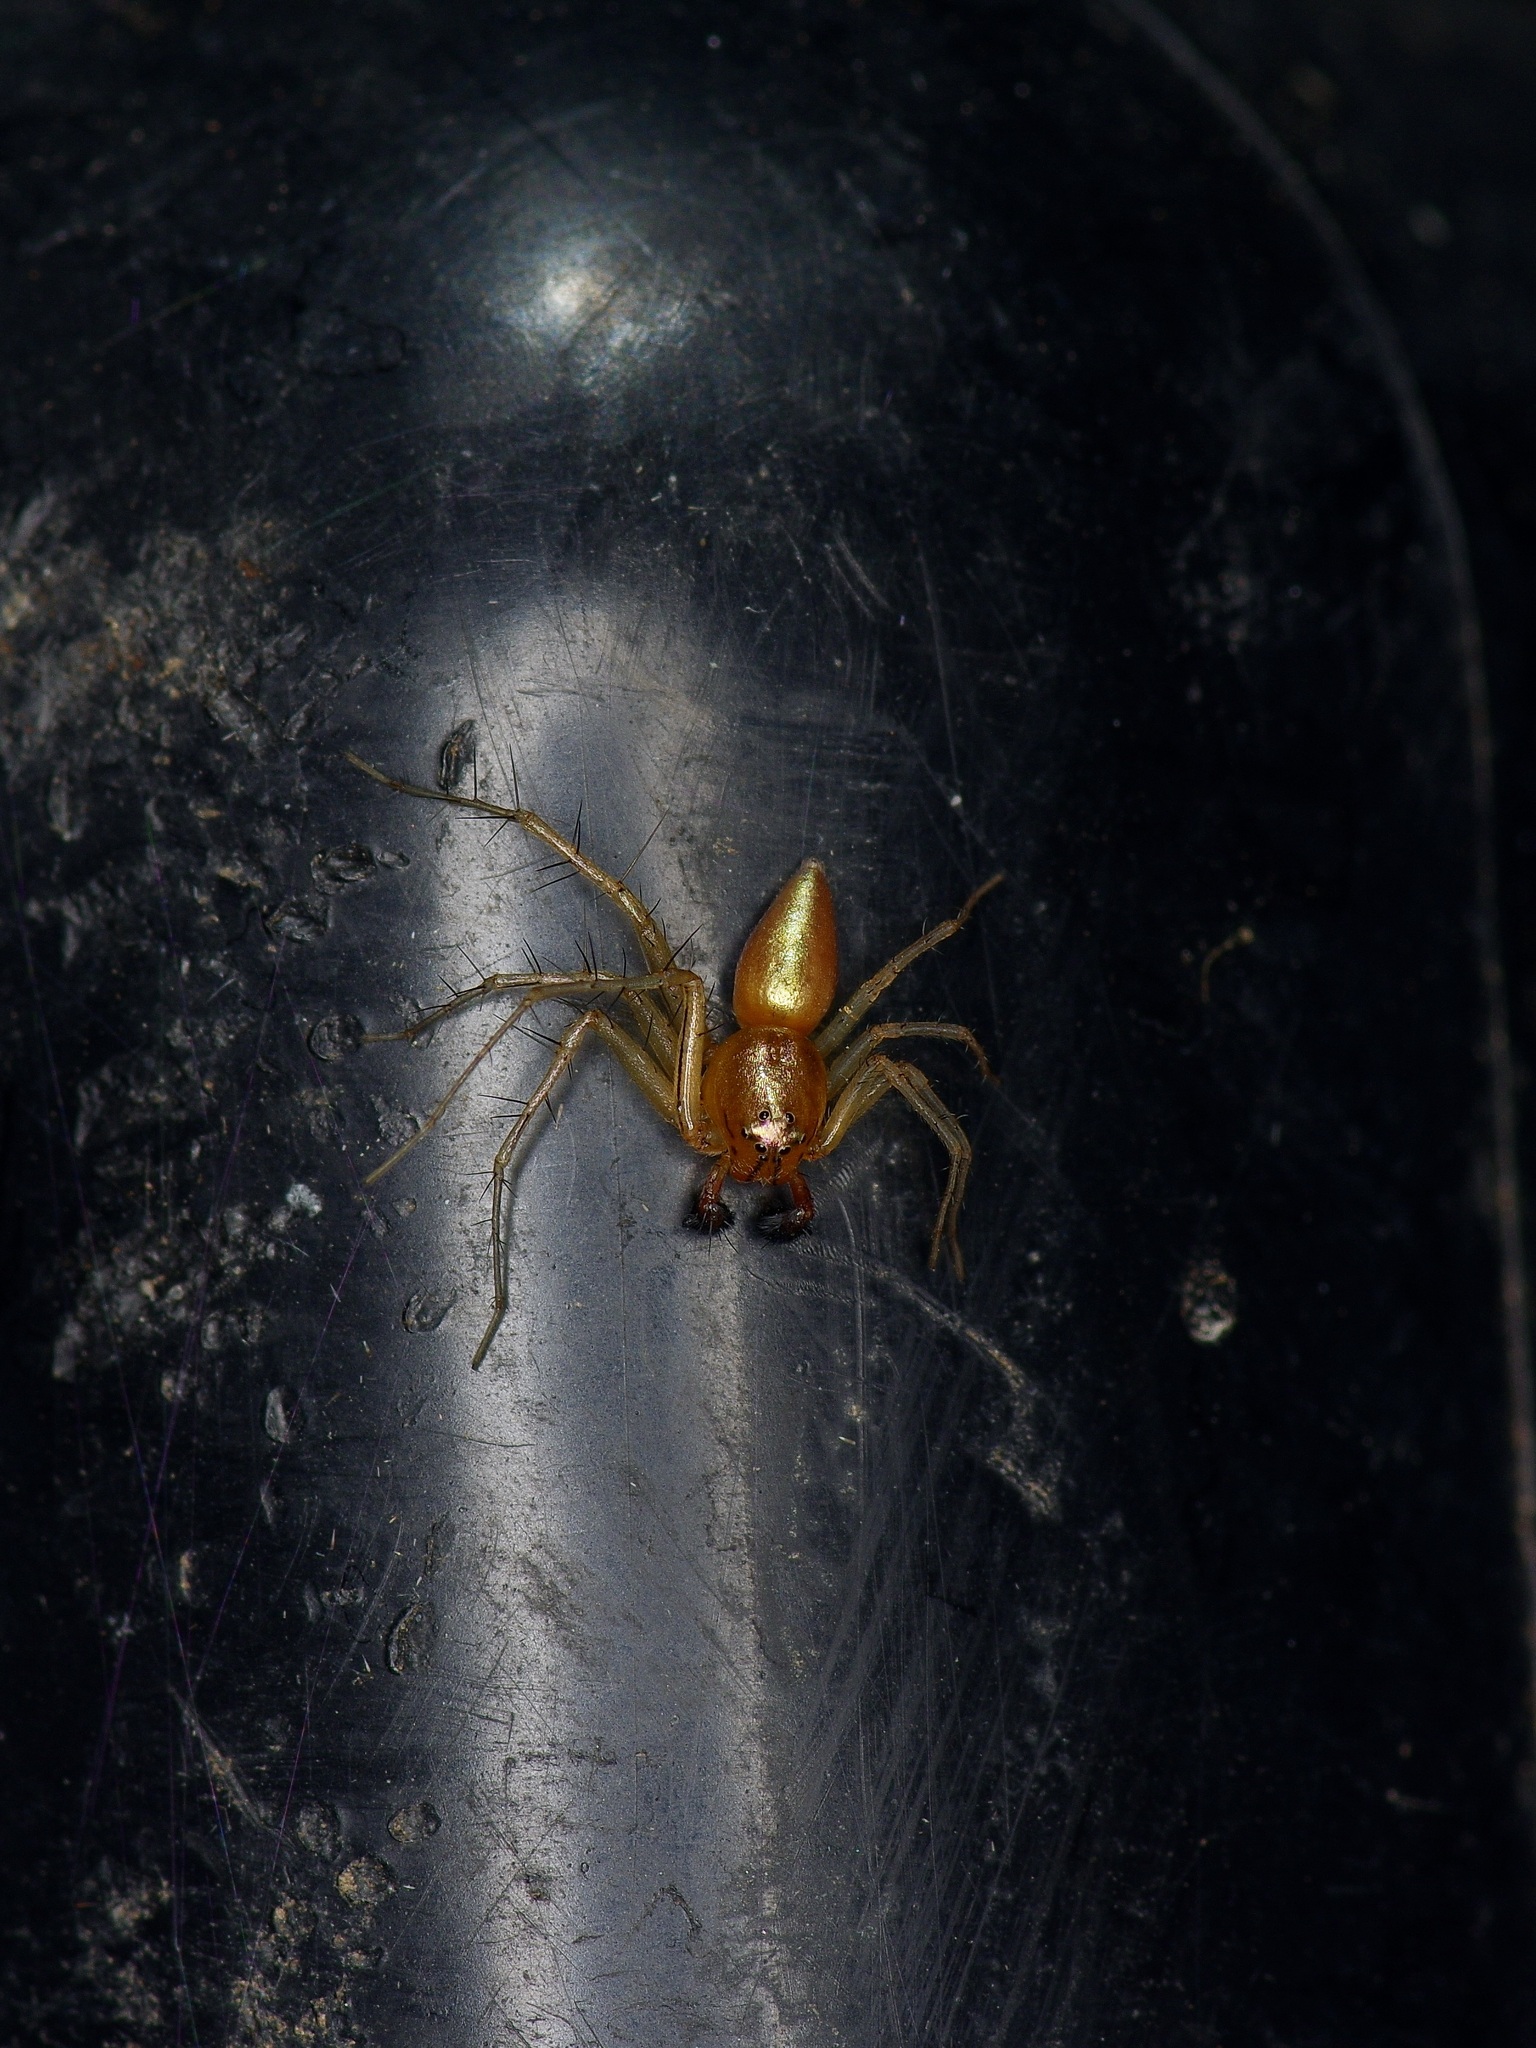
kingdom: Animalia
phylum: Arthropoda
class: Arachnida
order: Araneae
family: Oxyopidae
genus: Oxyopes
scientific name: Oxyopes salticus
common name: Lynx spiders
